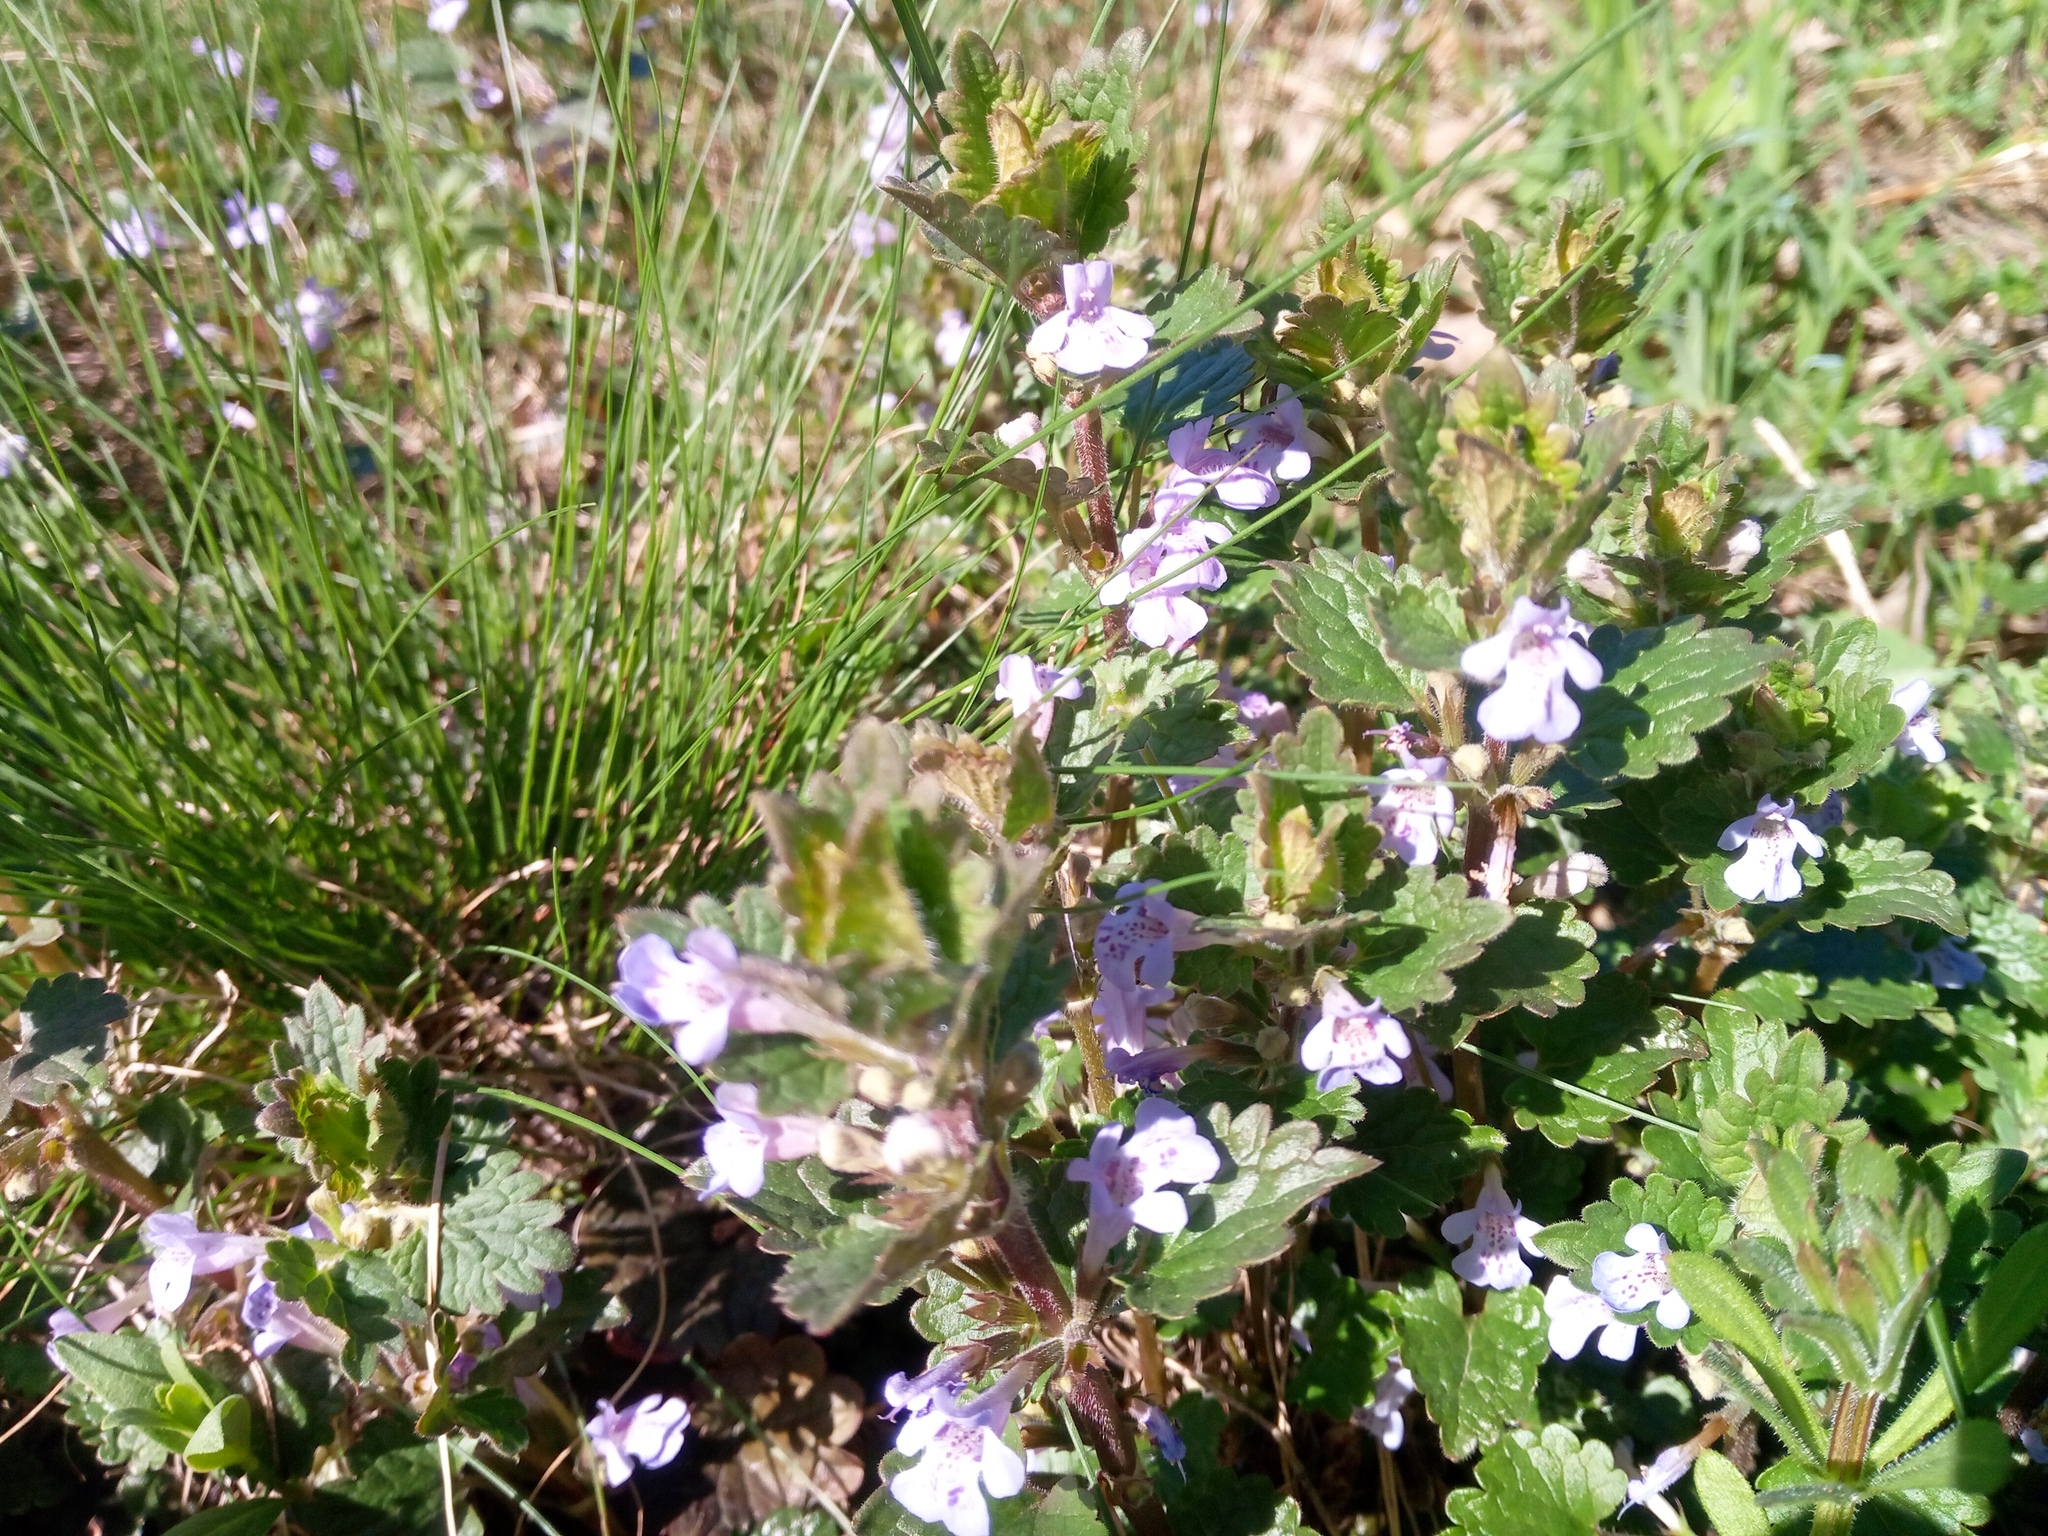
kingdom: Plantae
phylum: Tracheophyta
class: Magnoliopsida
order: Lamiales
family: Lamiaceae
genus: Glechoma
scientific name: Glechoma hirsuta
